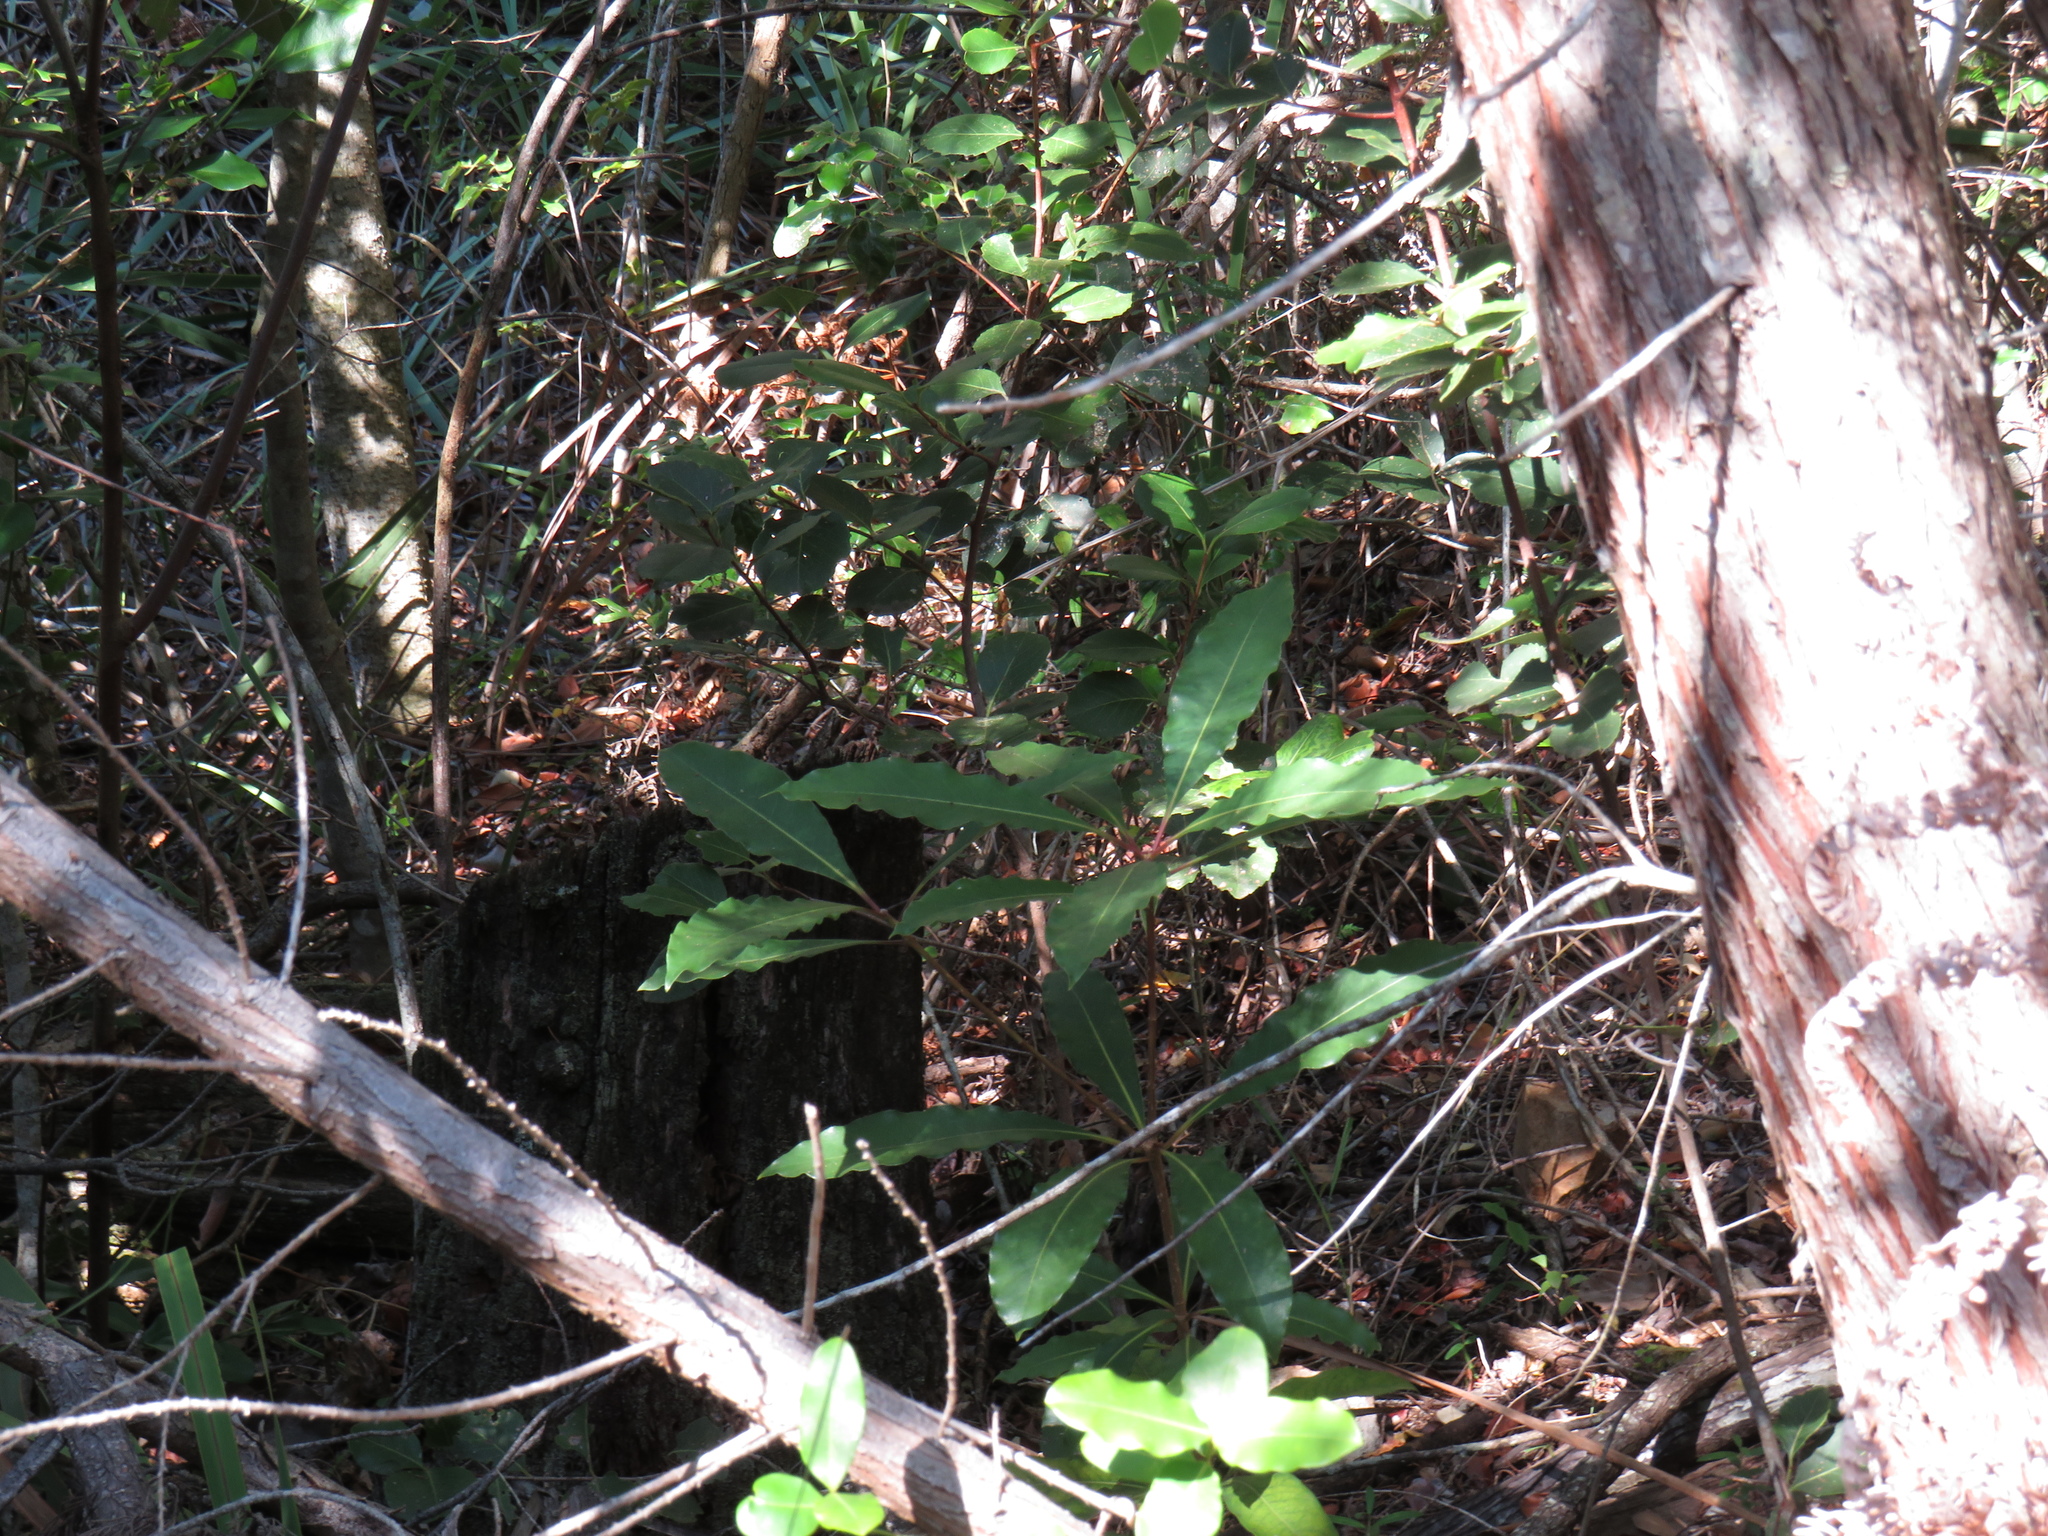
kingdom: Plantae
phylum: Tracheophyta
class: Magnoliopsida
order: Apiales
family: Pittosporaceae
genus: Pittosporum
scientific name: Pittosporum undulatum
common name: Australian cheesewood
